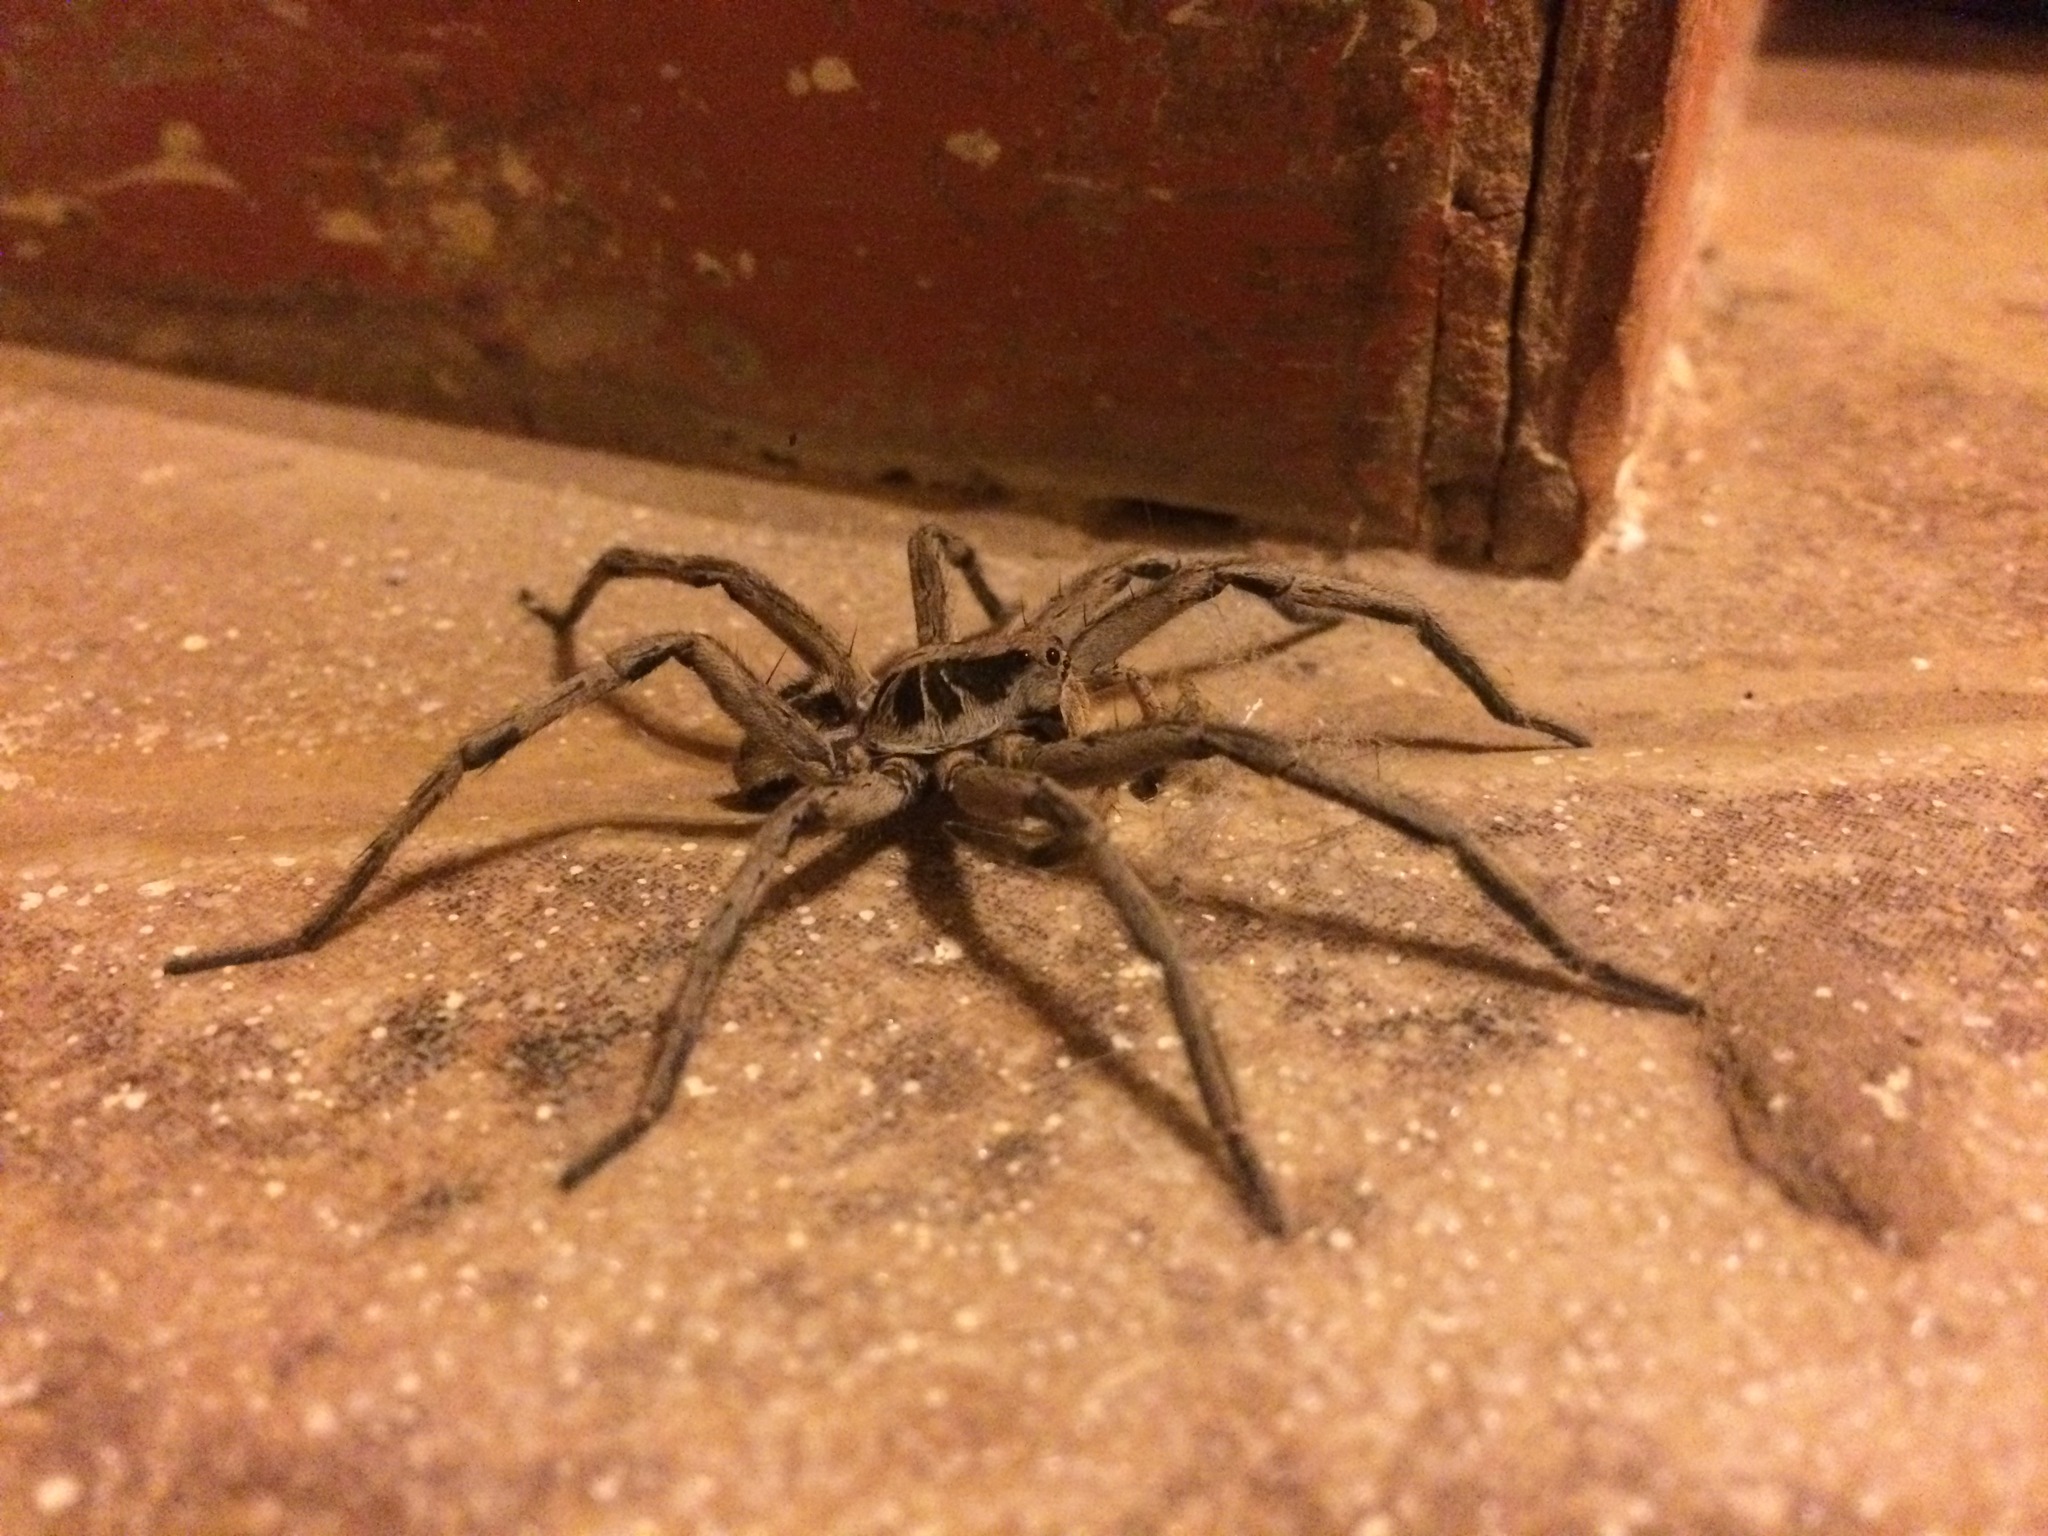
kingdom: Animalia
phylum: Arthropoda
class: Arachnida
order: Araneae
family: Lycosidae
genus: Lycosa
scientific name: Lycosa erythrognatha
